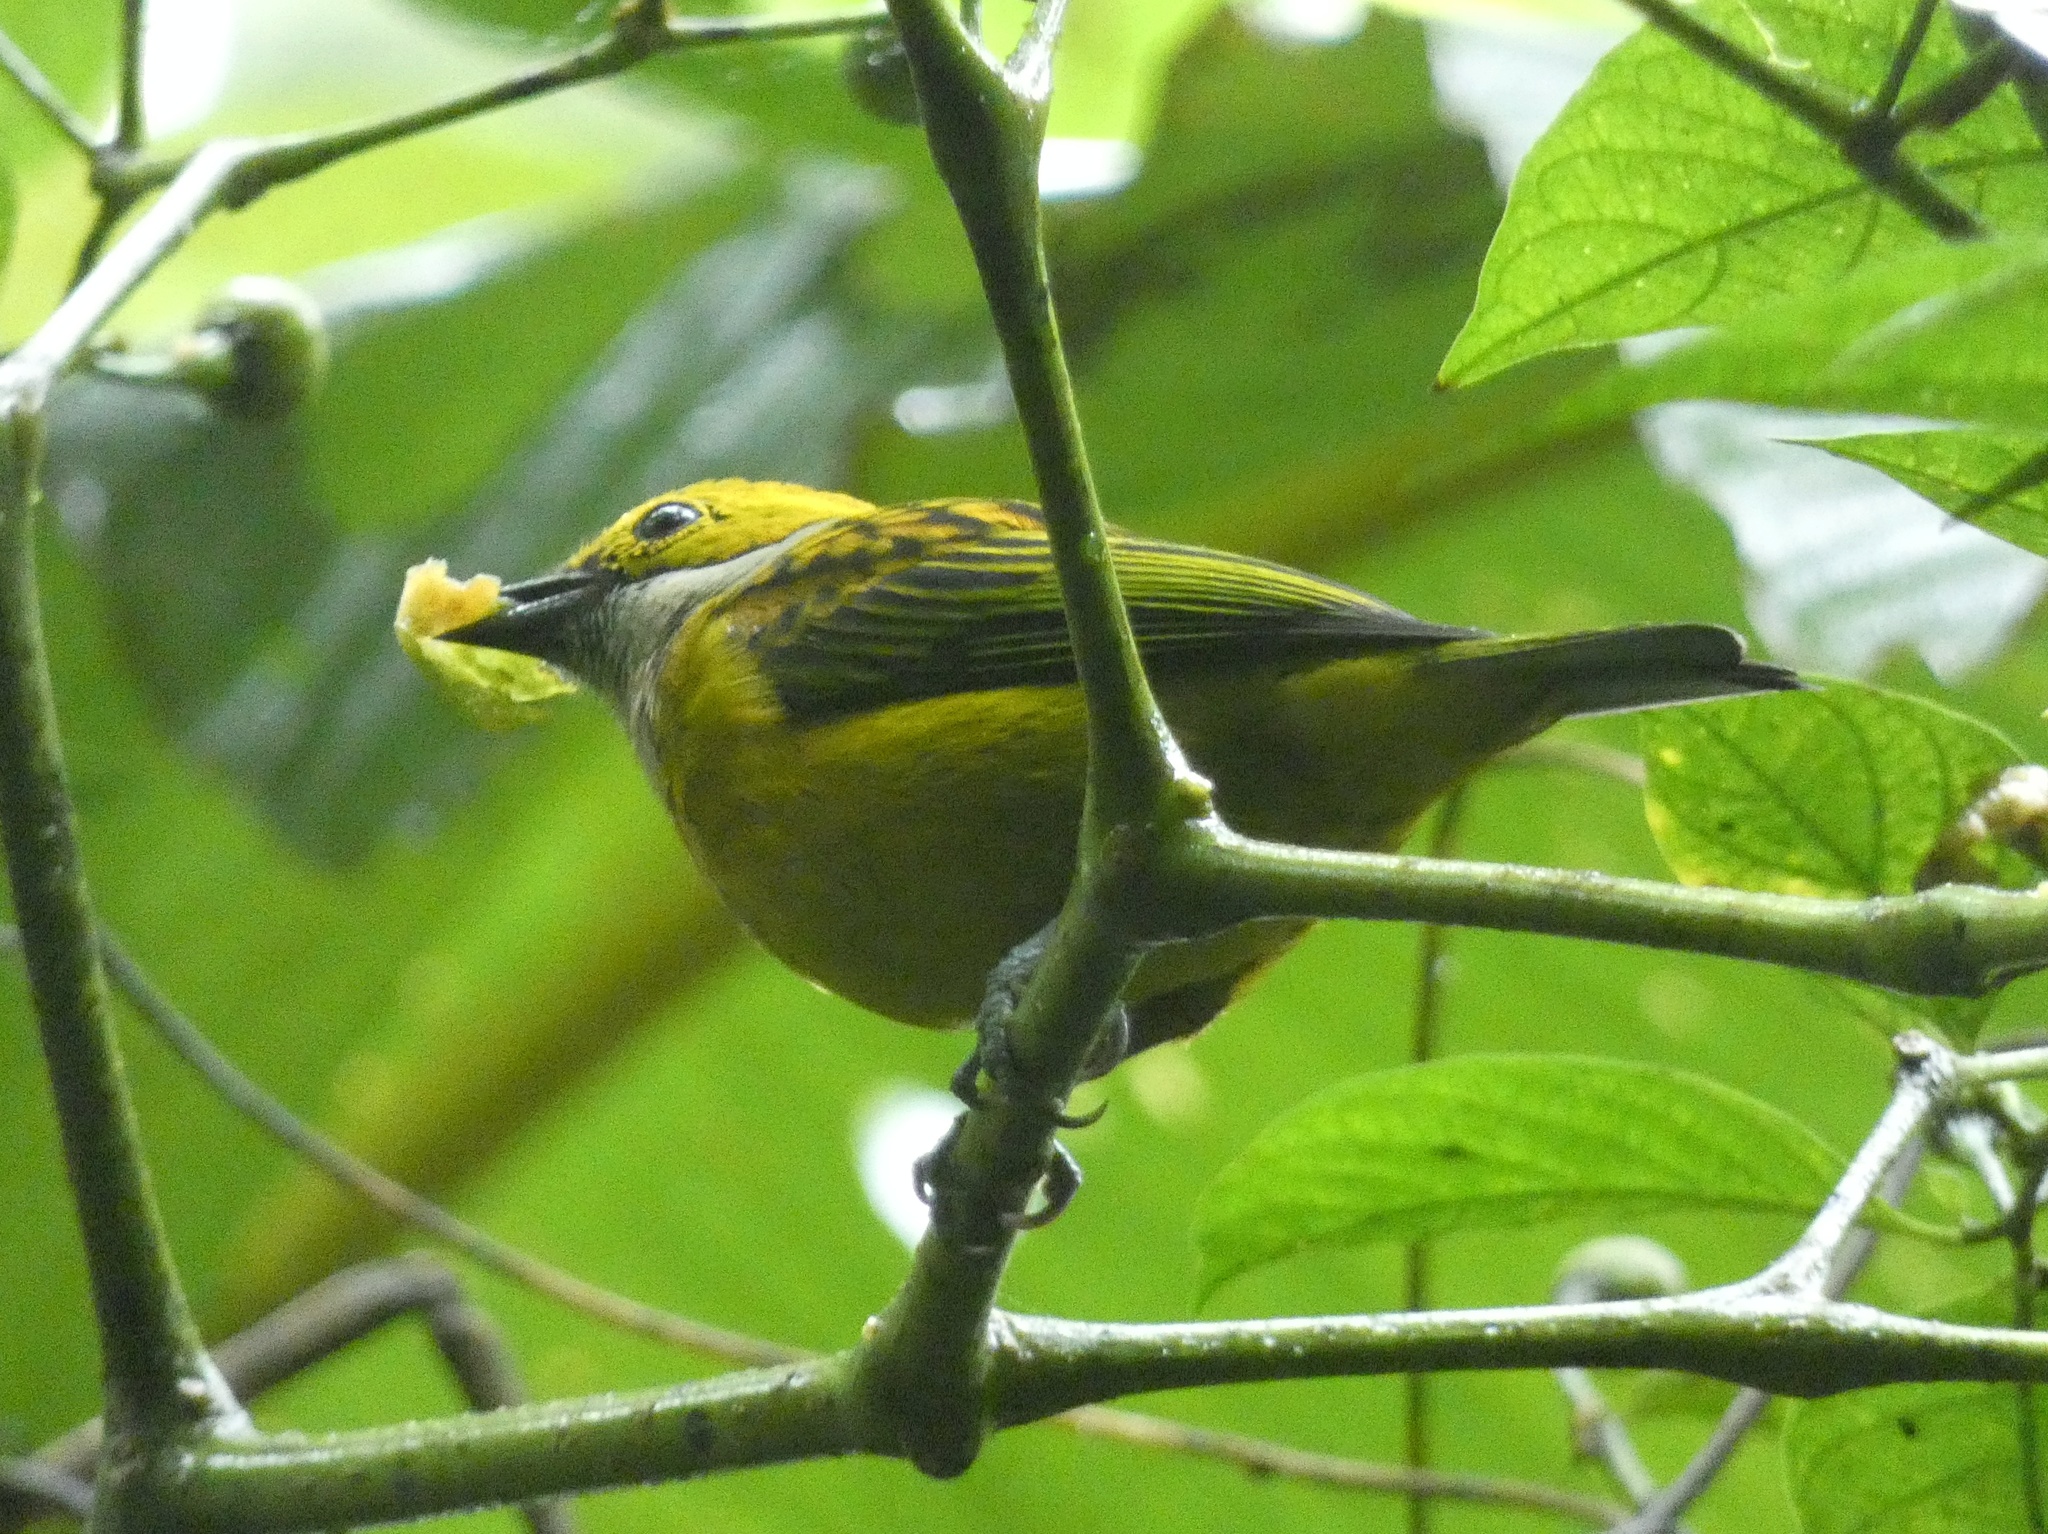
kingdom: Animalia
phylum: Chordata
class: Aves
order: Passeriformes
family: Thraupidae
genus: Tangara
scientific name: Tangara icterocephala
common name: Silver-throated tanager
